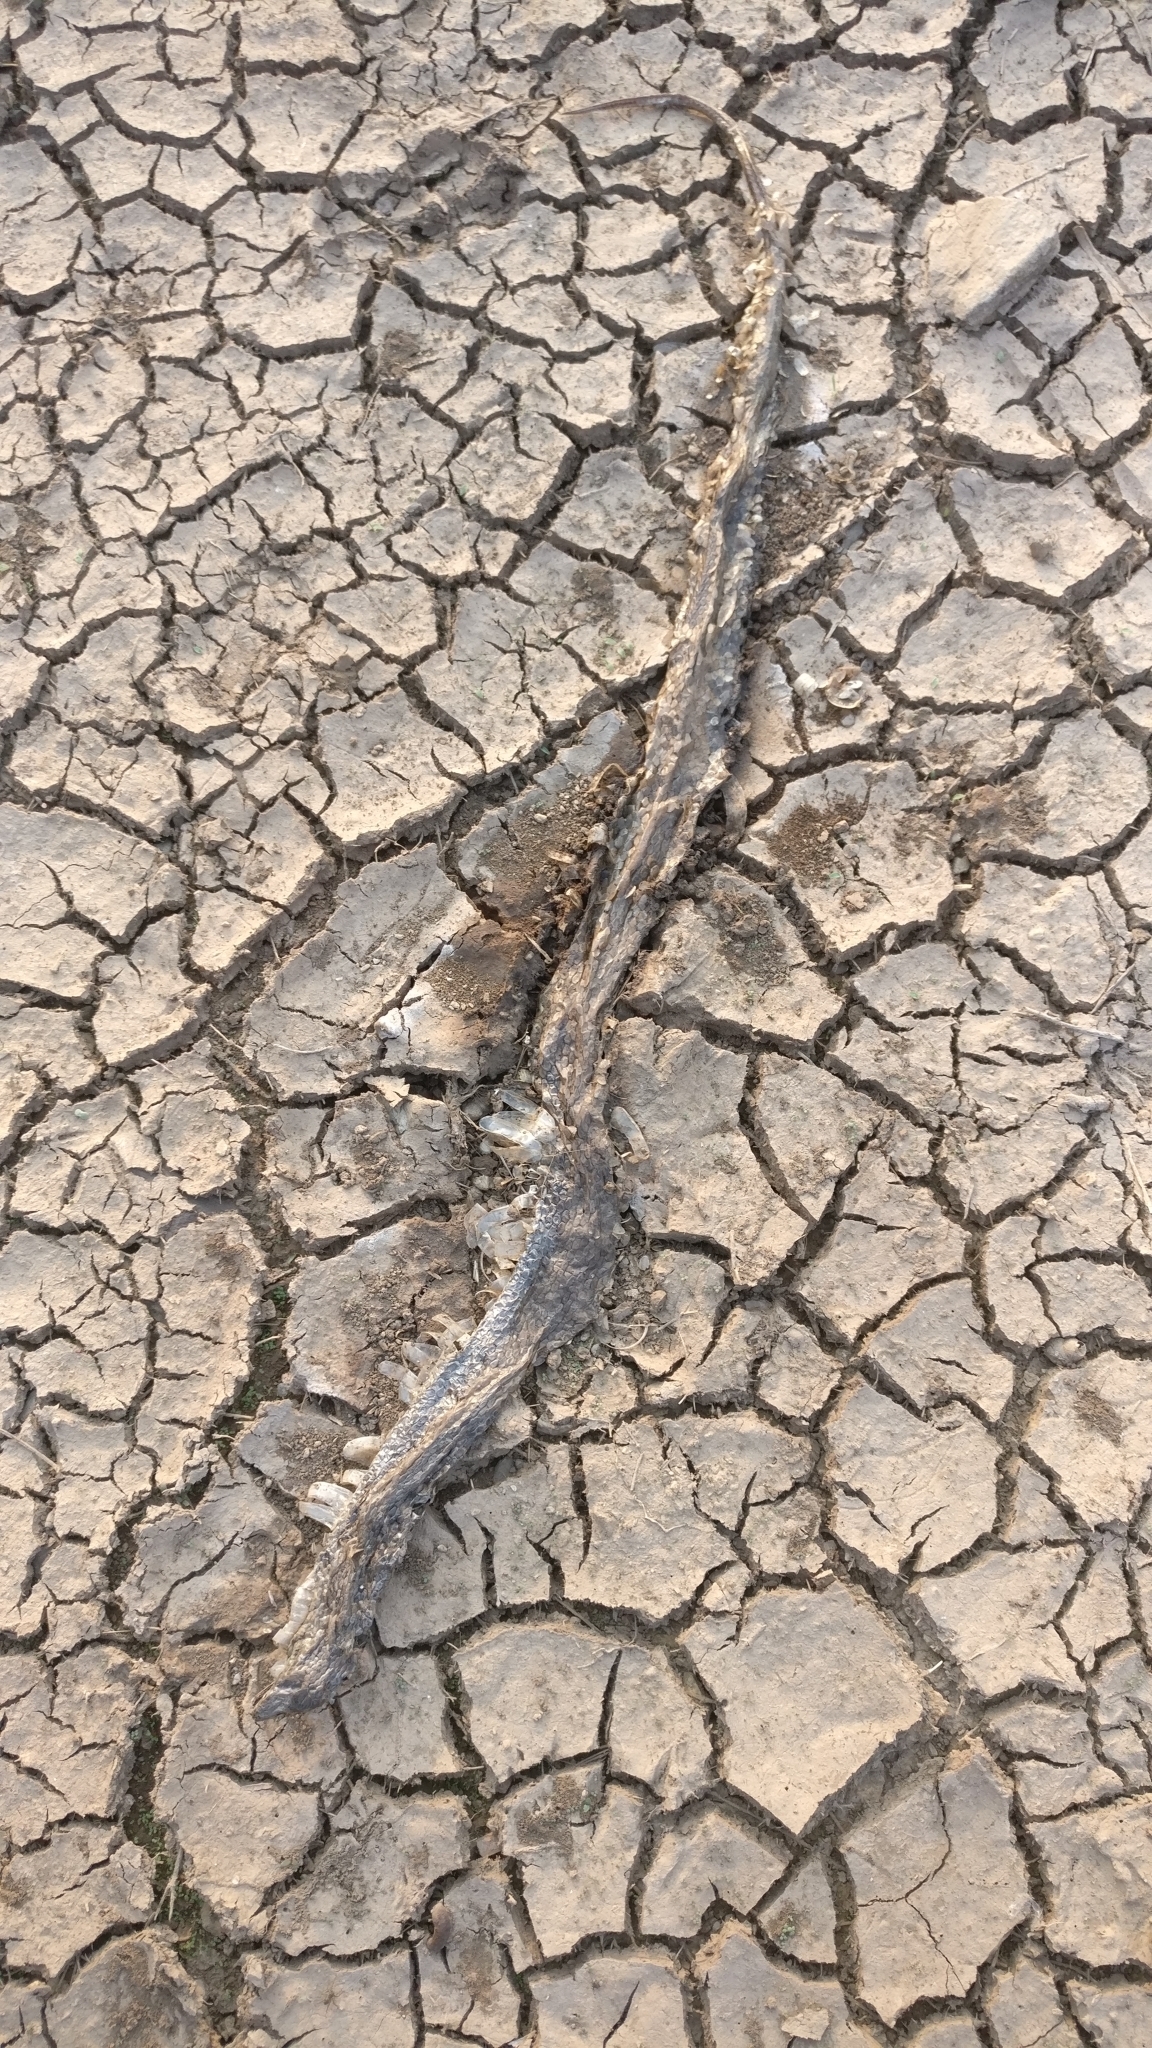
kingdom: Animalia
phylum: Chordata
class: Squamata
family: Colubridae
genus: Fowlea
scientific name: Fowlea piscator
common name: Asiatic water snake
